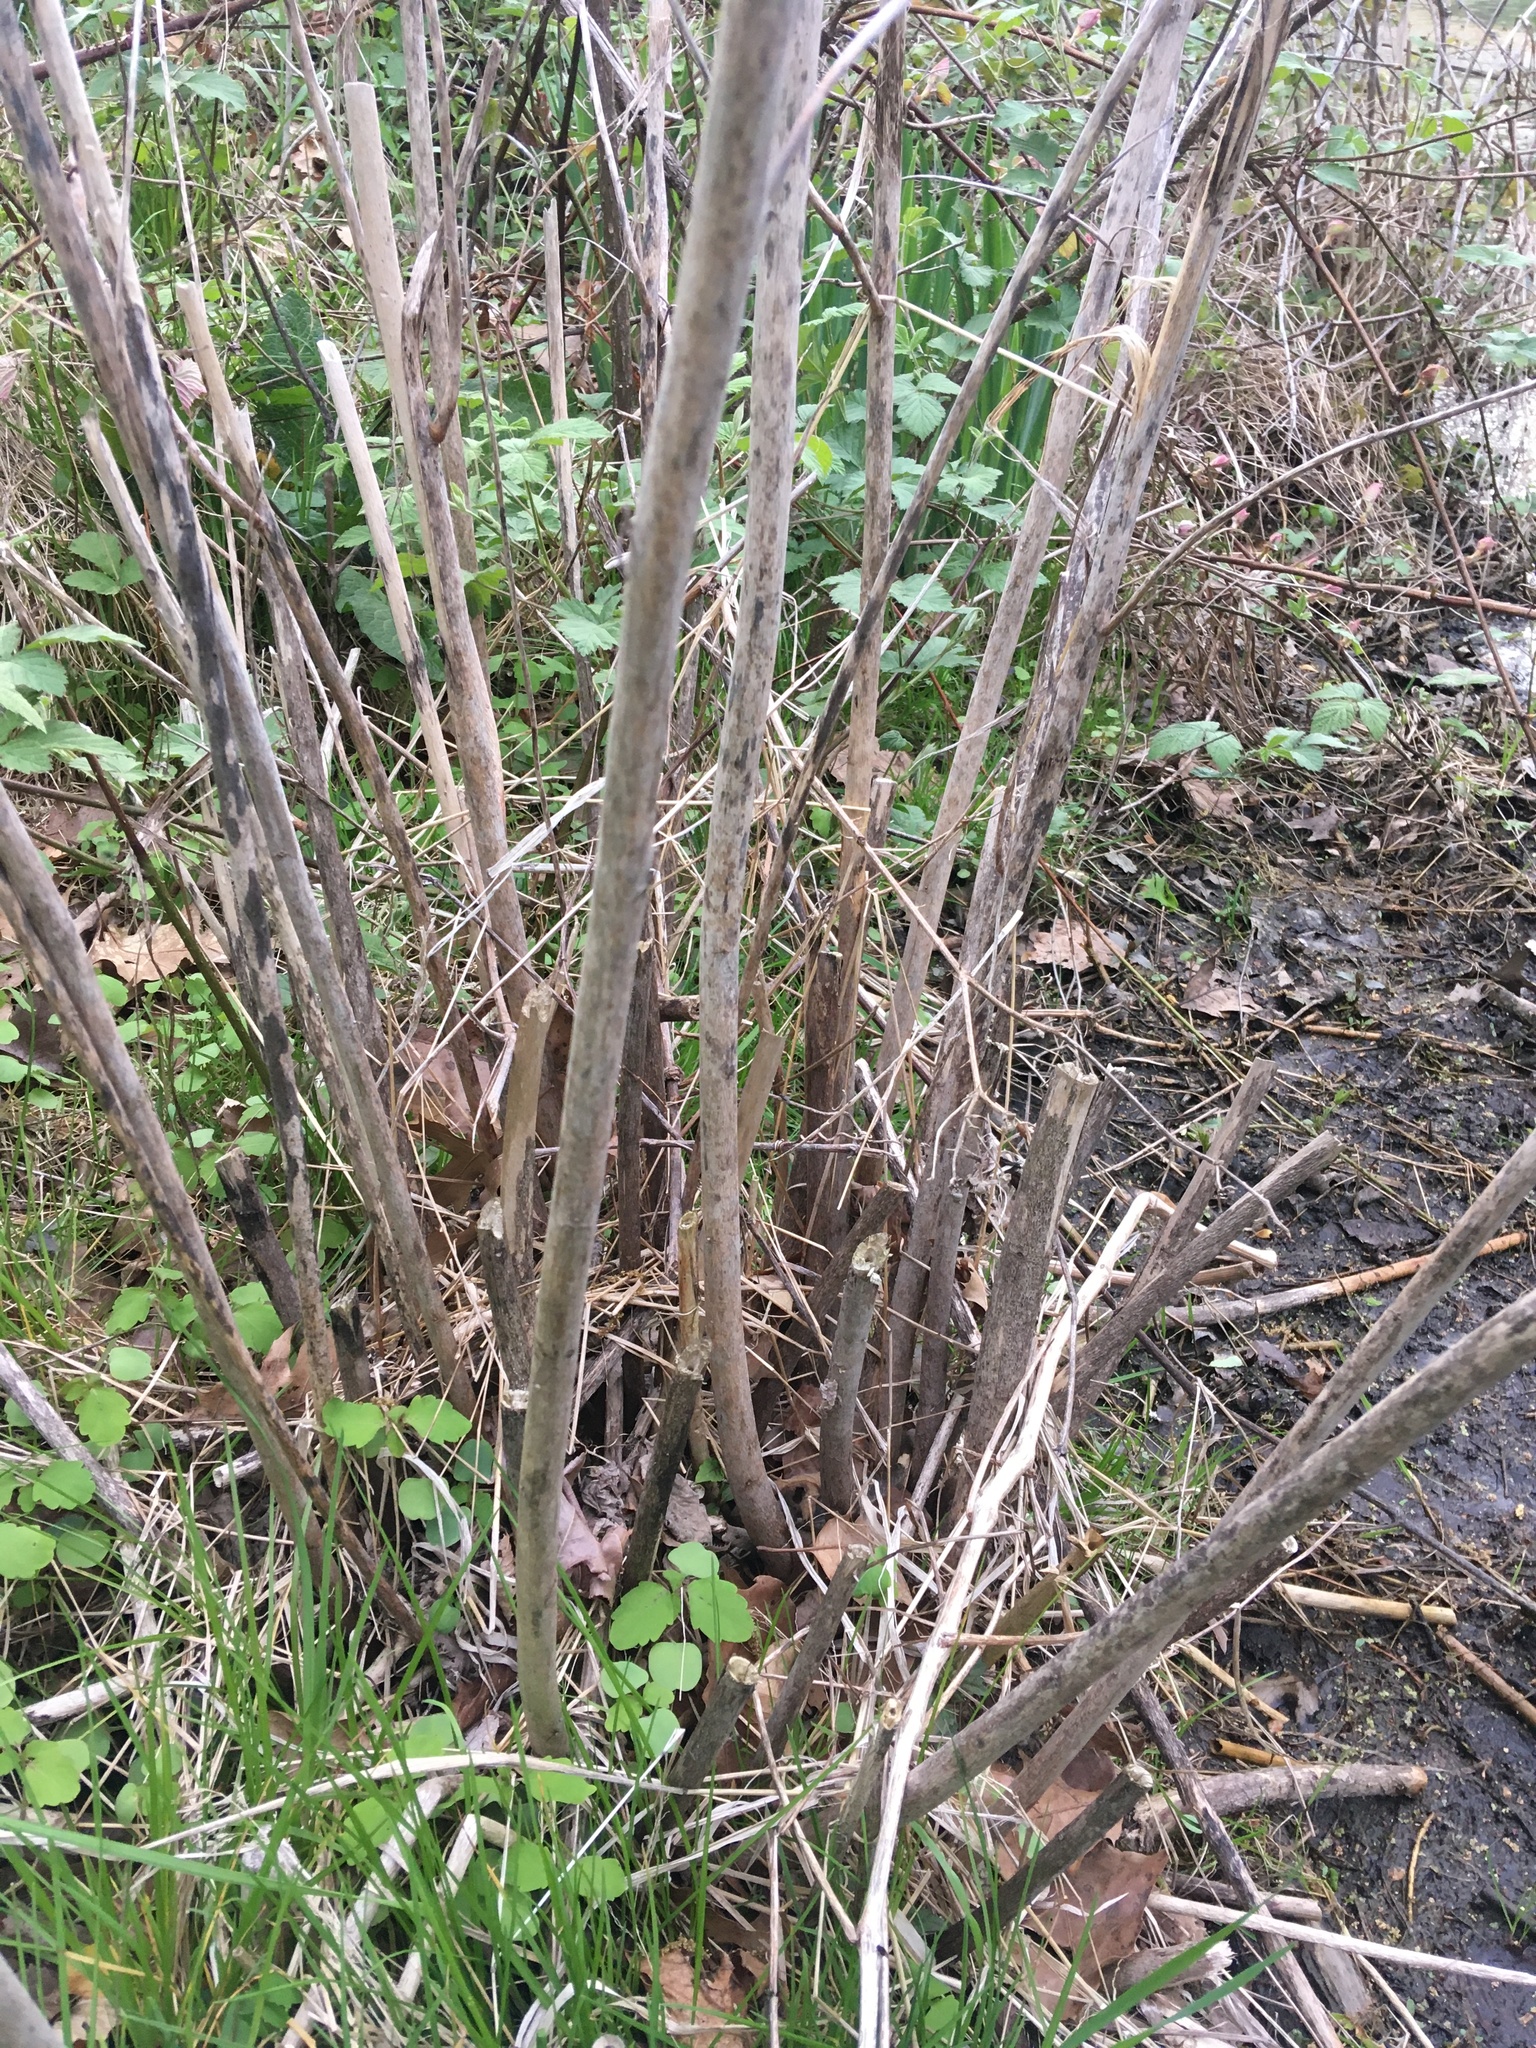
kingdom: Plantae
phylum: Tracheophyta
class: Magnoliopsida
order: Malvales
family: Malvaceae
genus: Hibiscus
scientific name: Hibiscus moscheutos
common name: Common rose-mallow
